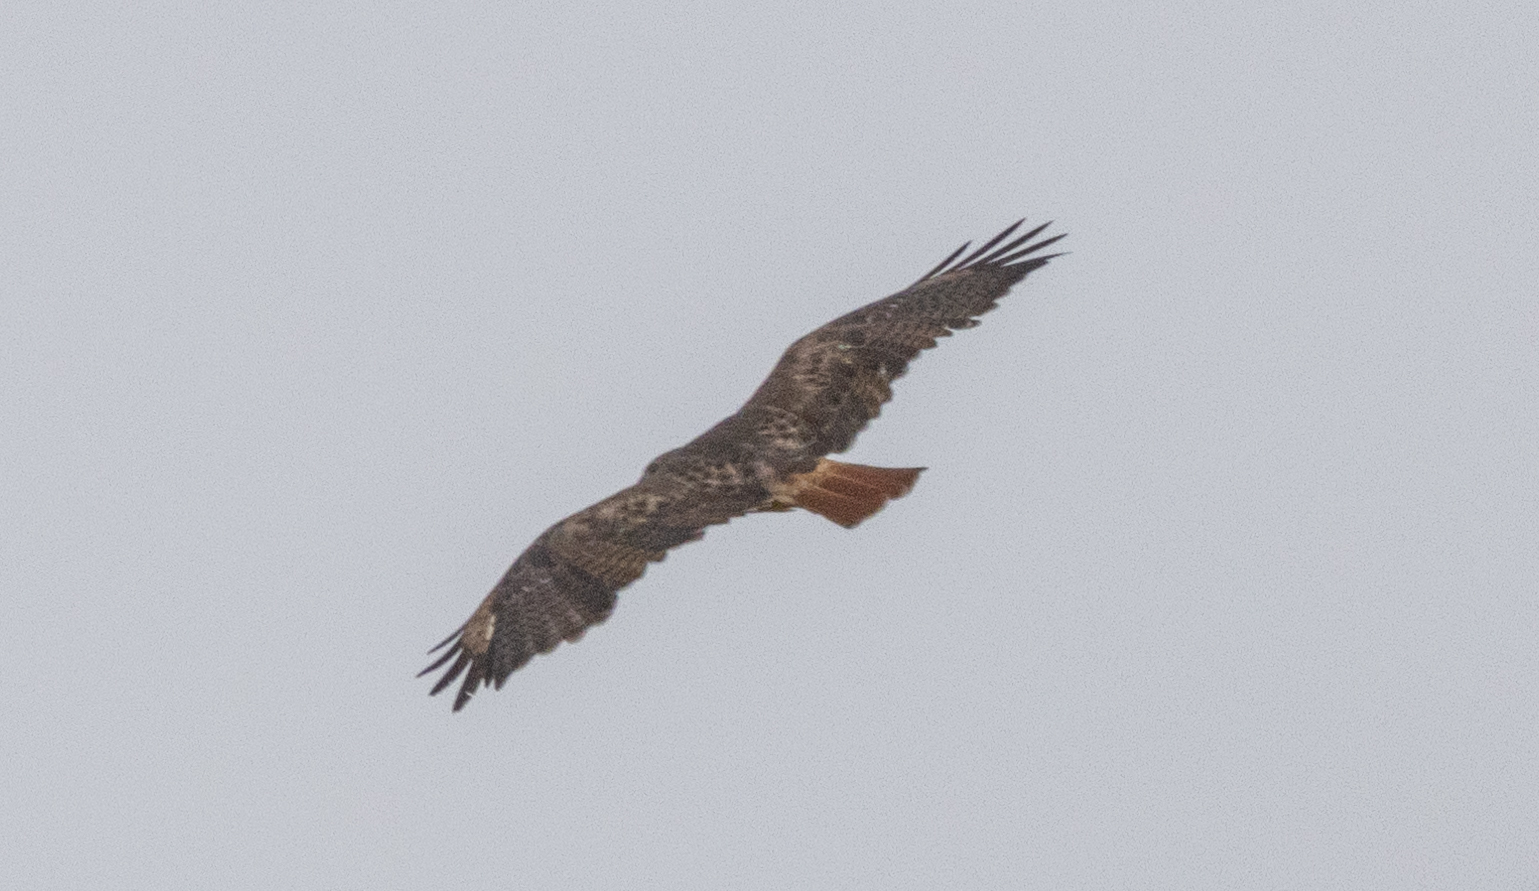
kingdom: Animalia
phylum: Chordata
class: Aves
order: Accipitriformes
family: Accipitridae
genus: Buteo
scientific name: Buteo jamaicensis
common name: Red-tailed hawk
